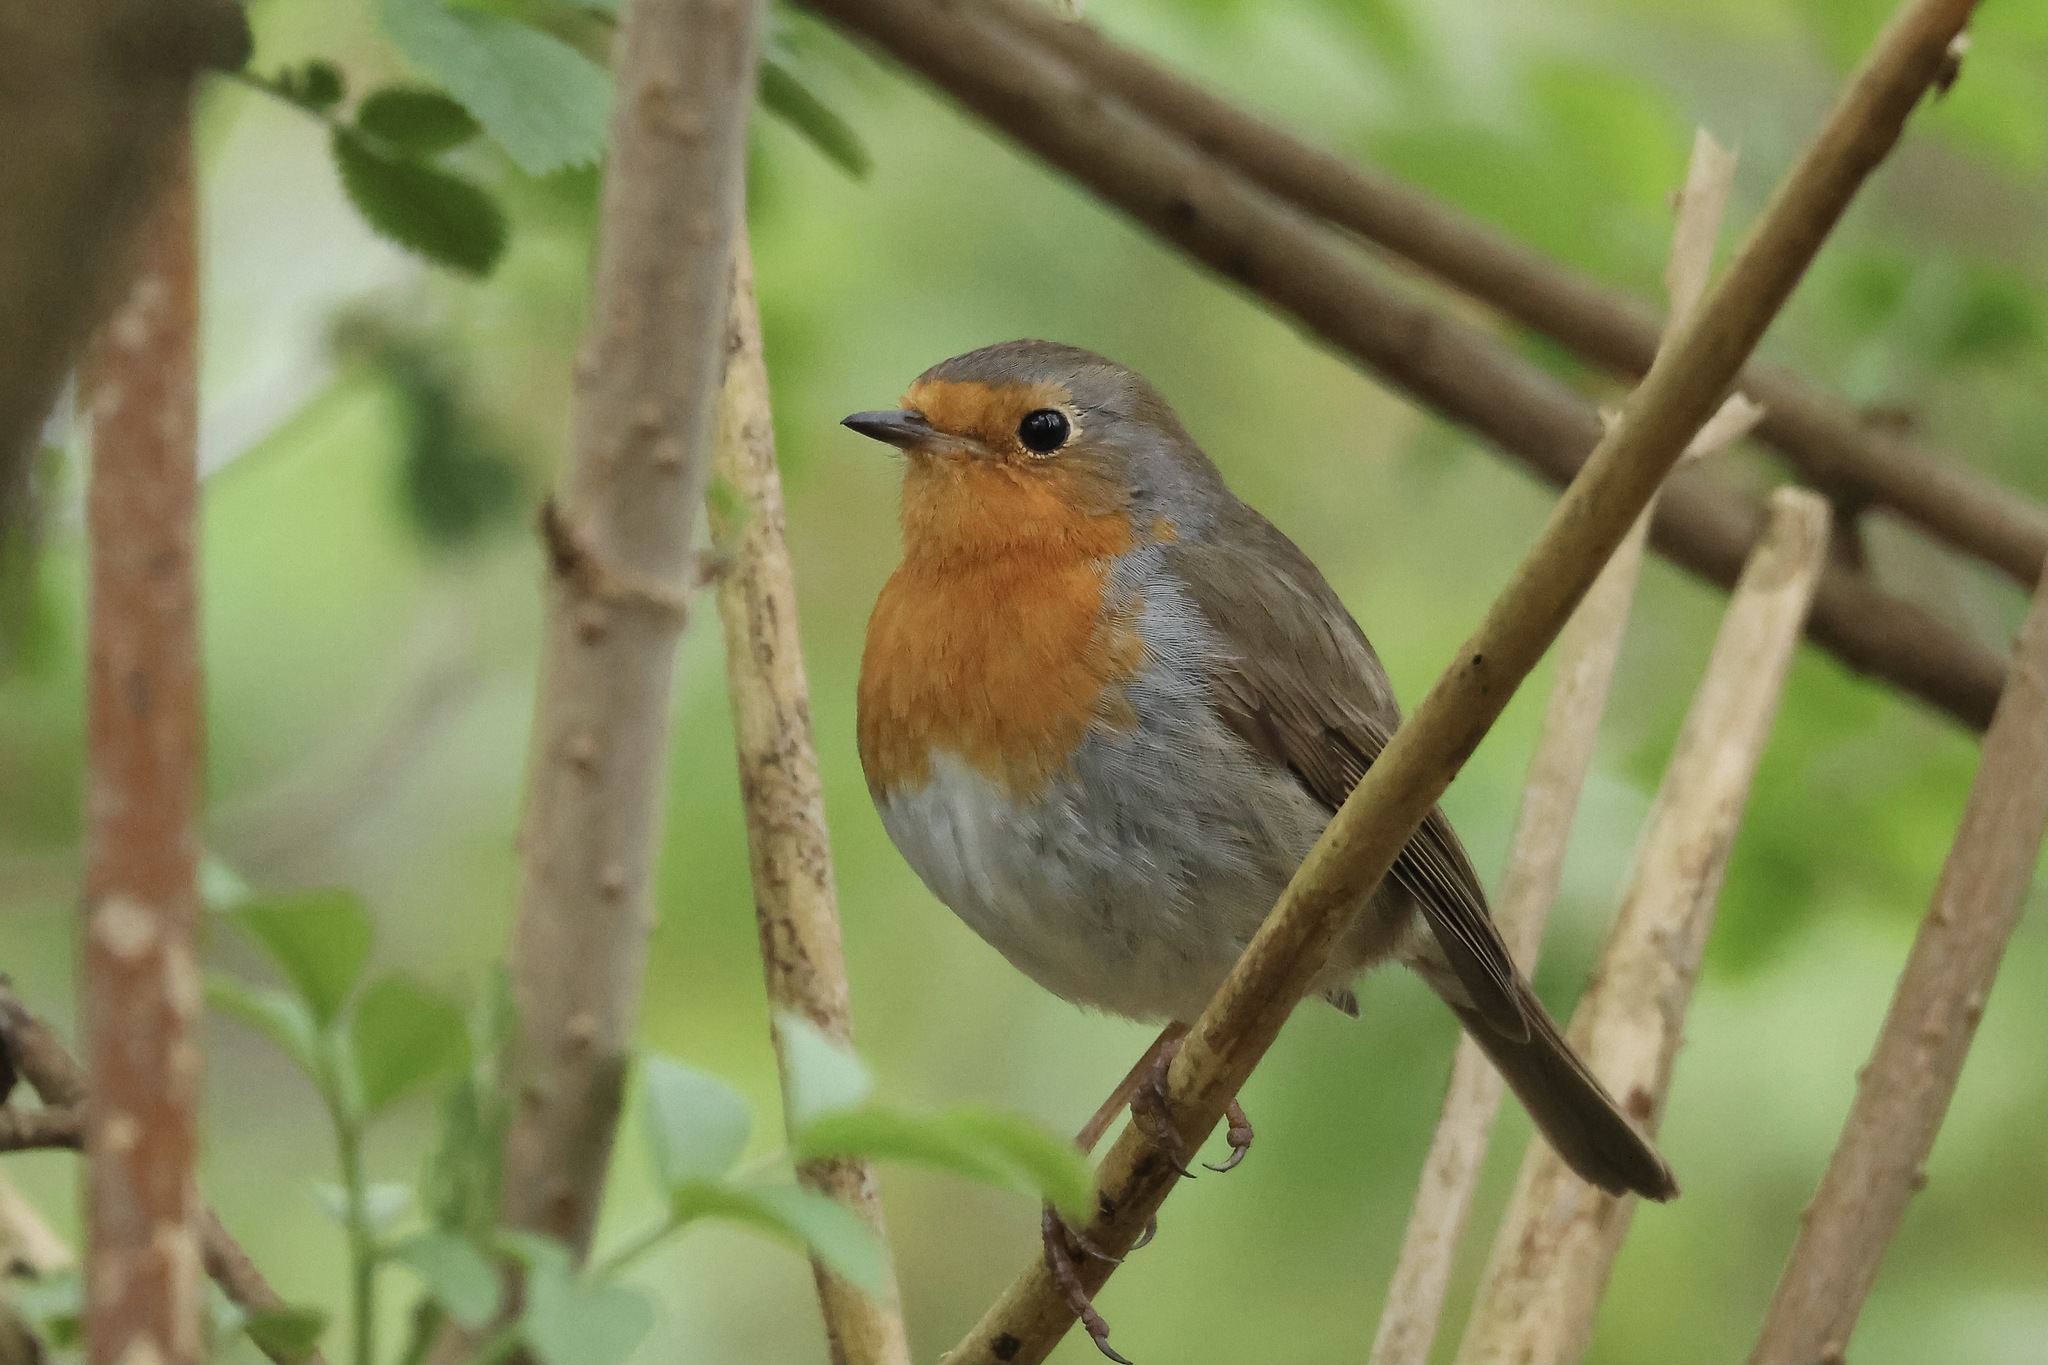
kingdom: Animalia
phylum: Chordata
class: Aves
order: Passeriformes
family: Muscicapidae
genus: Erithacus
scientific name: Erithacus rubecula
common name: European robin
